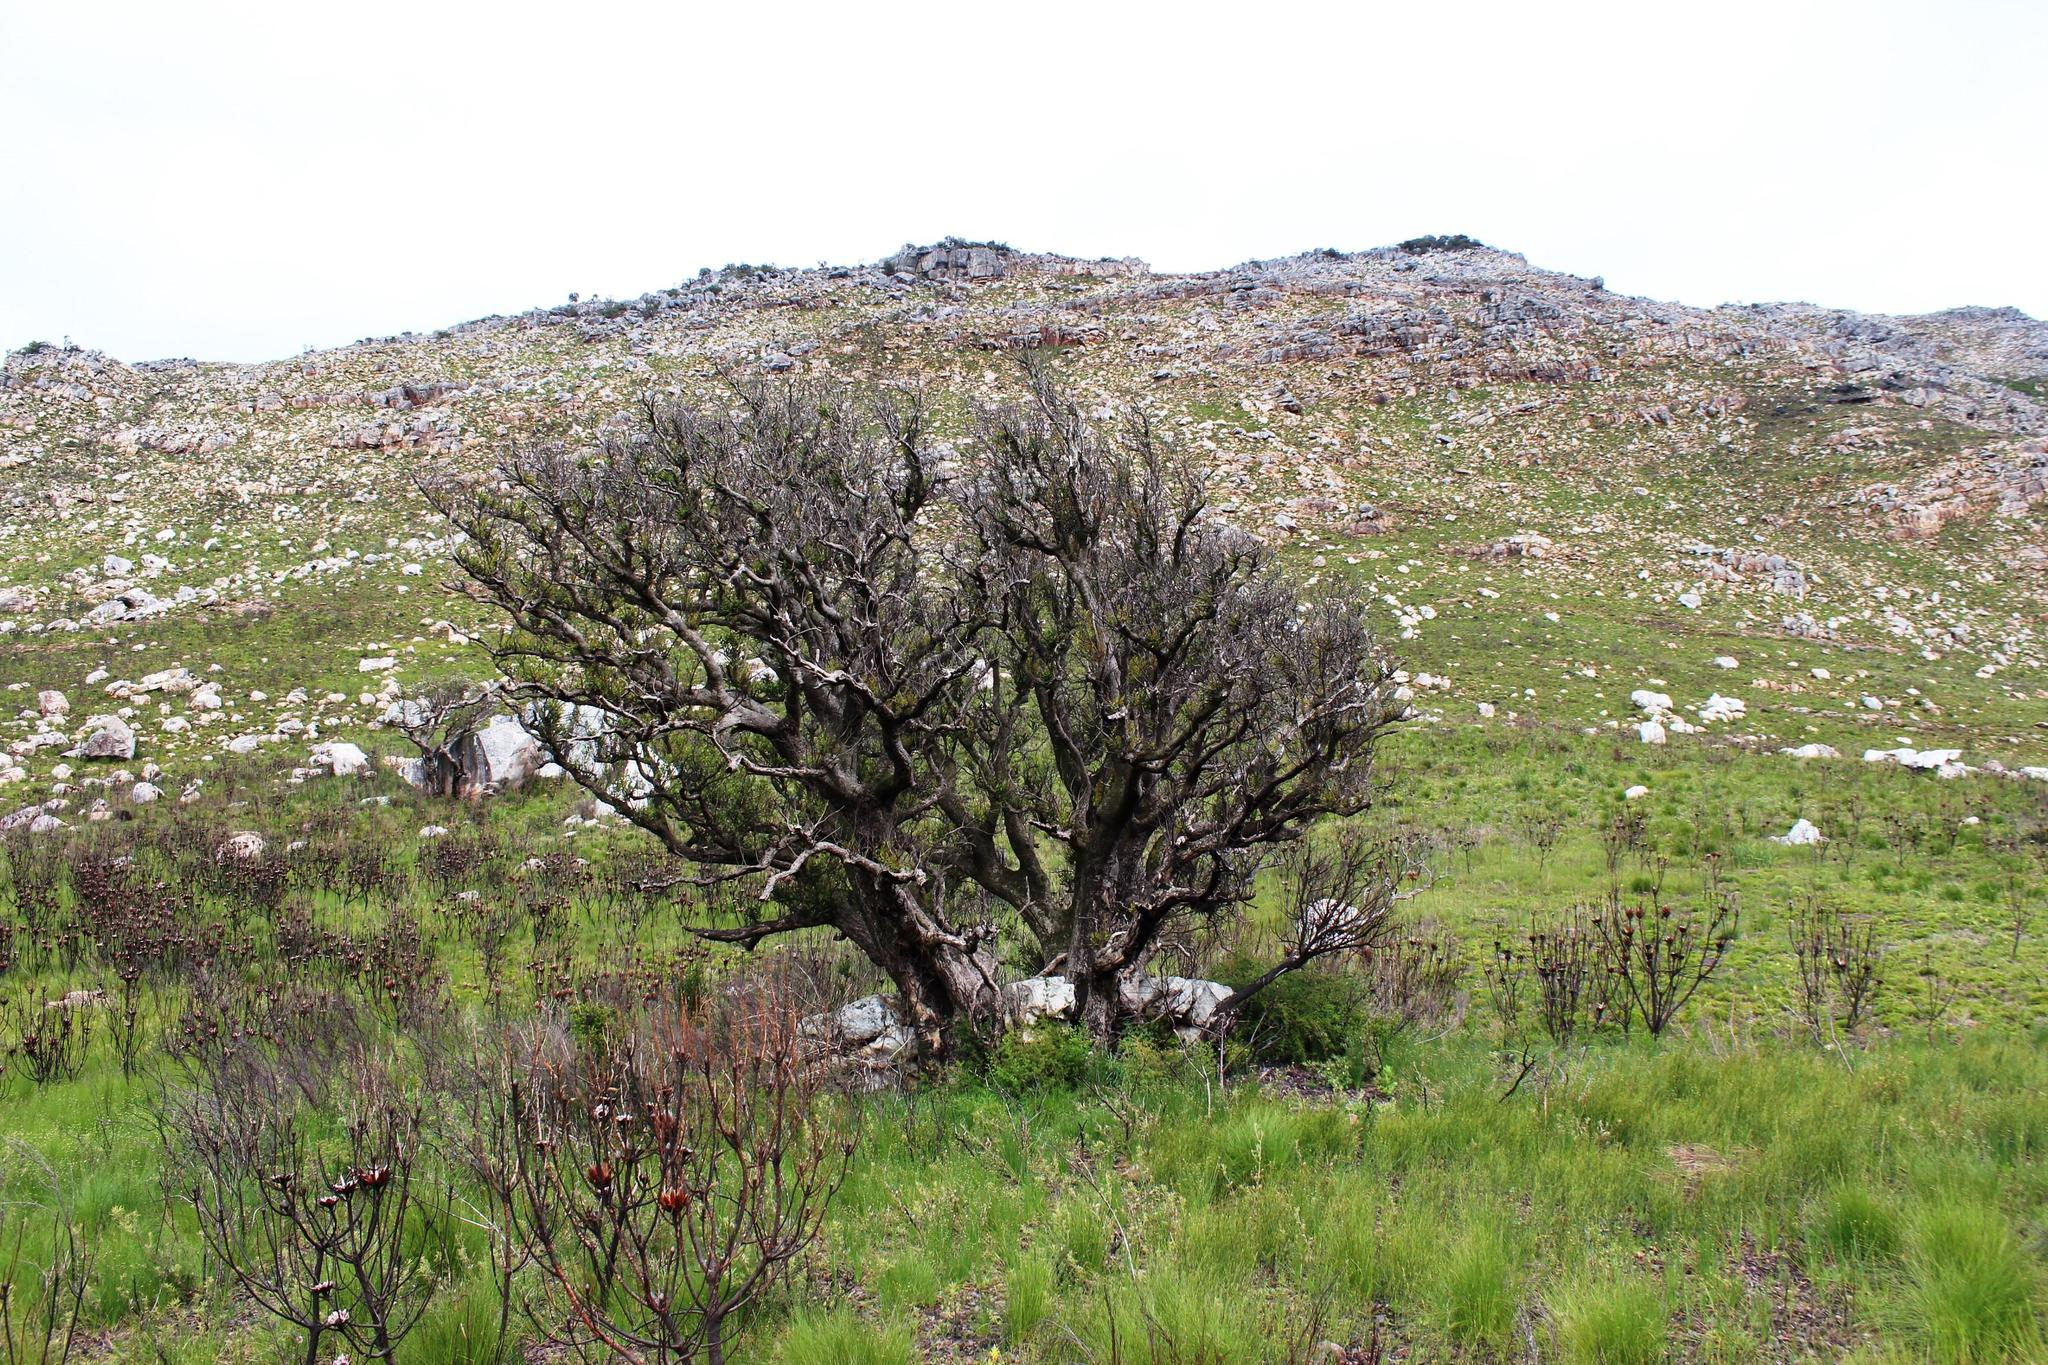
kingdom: Plantae
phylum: Tracheophyta
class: Magnoliopsida
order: Celastrales
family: Celastraceae
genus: Gymnosporia
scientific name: Gymnosporia laurina
